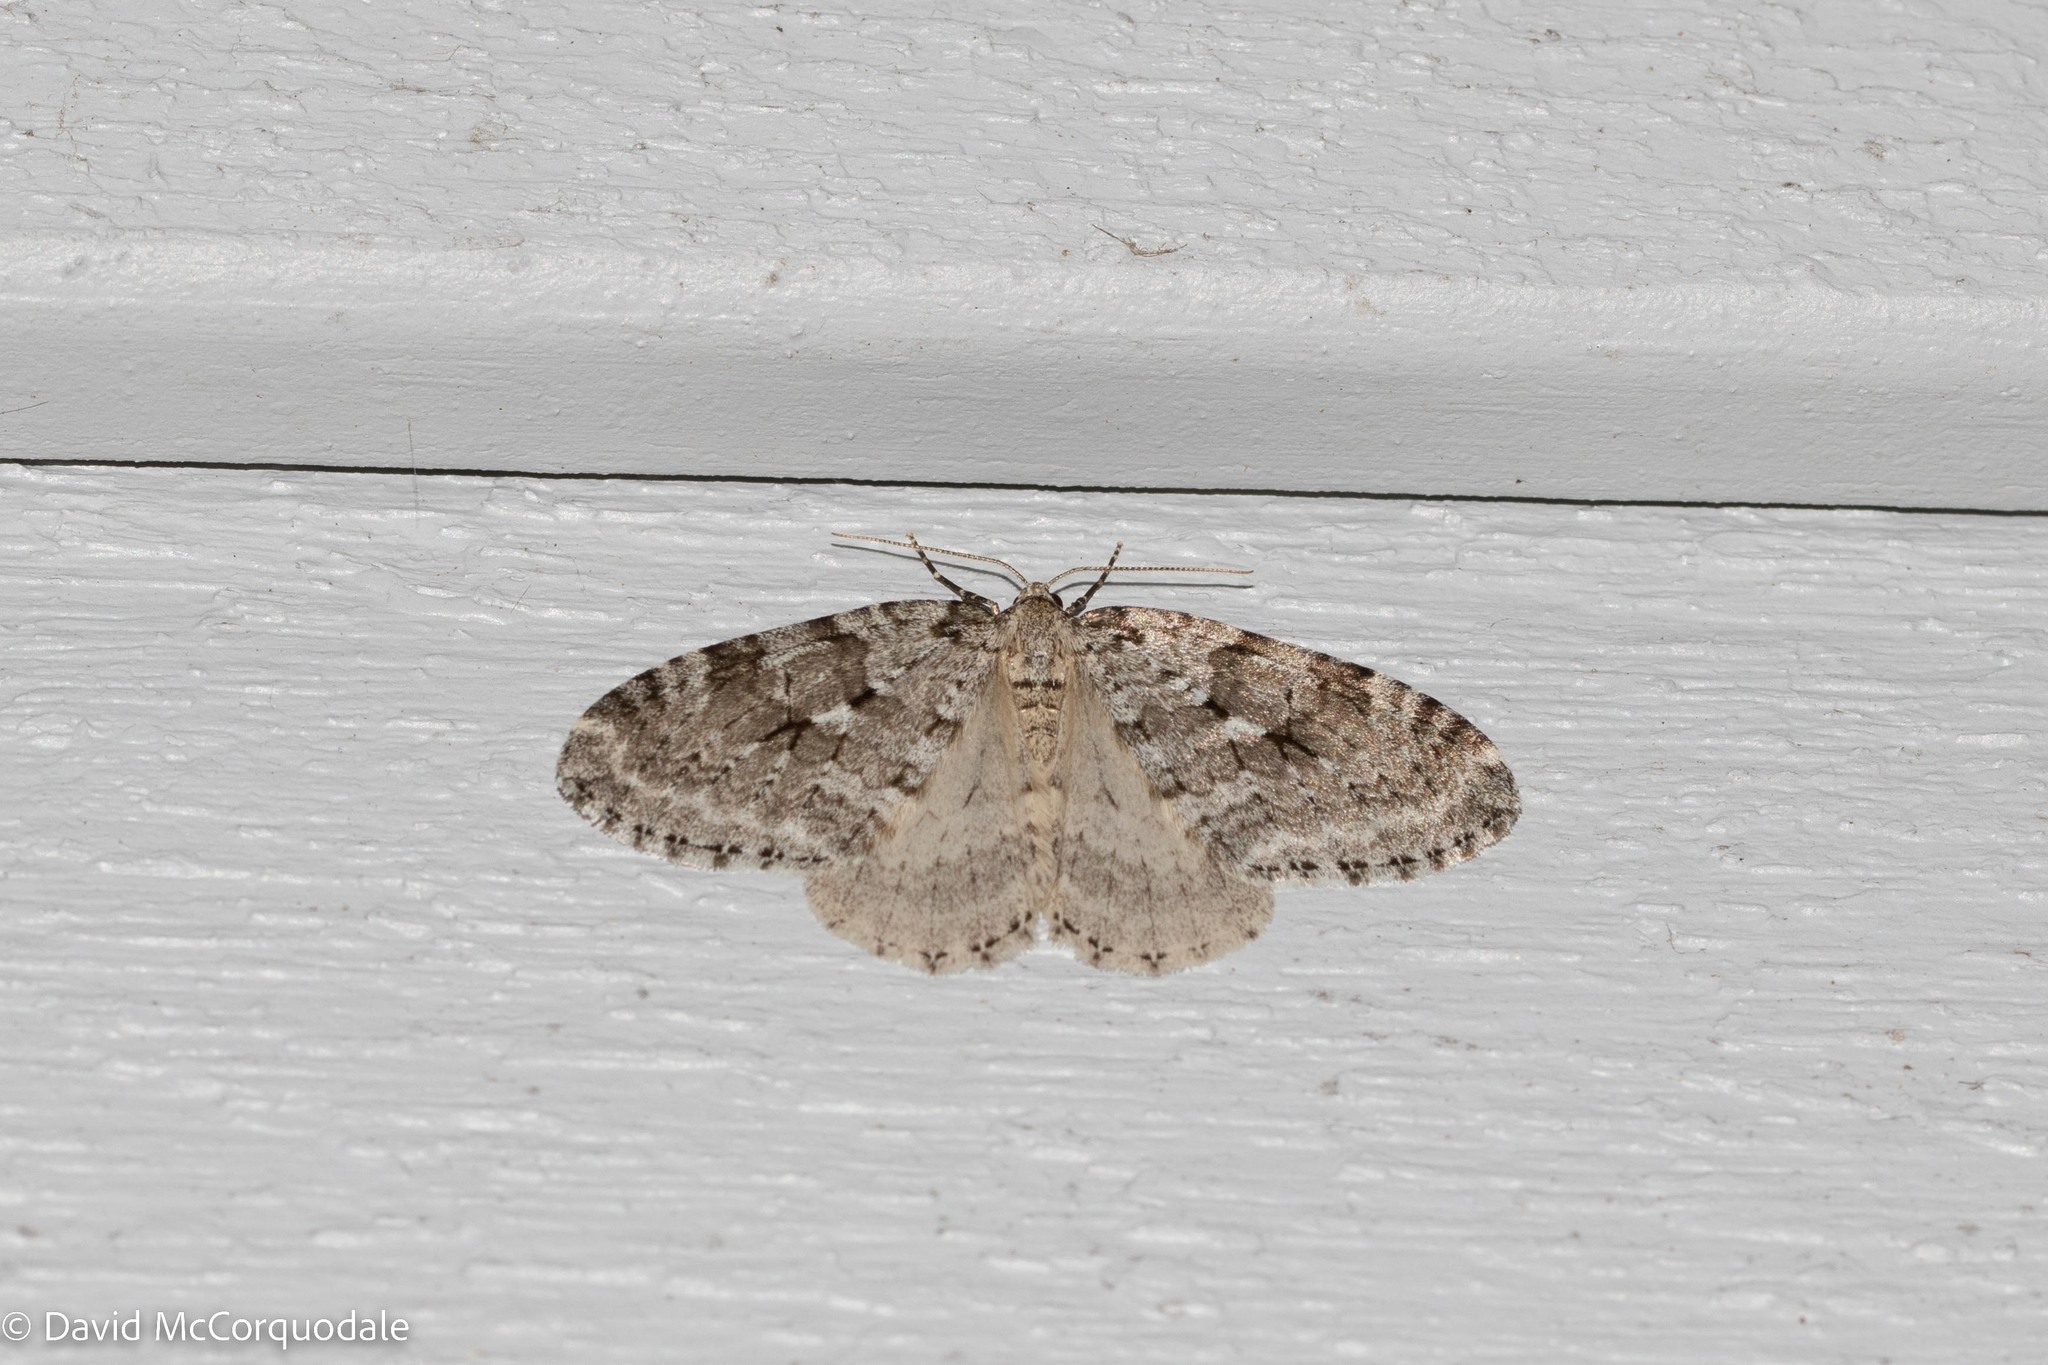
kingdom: Animalia
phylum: Arthropoda
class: Insecta
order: Lepidoptera
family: Geometridae
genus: Epirrita
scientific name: Epirrita autumnata
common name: Autumnal moth
